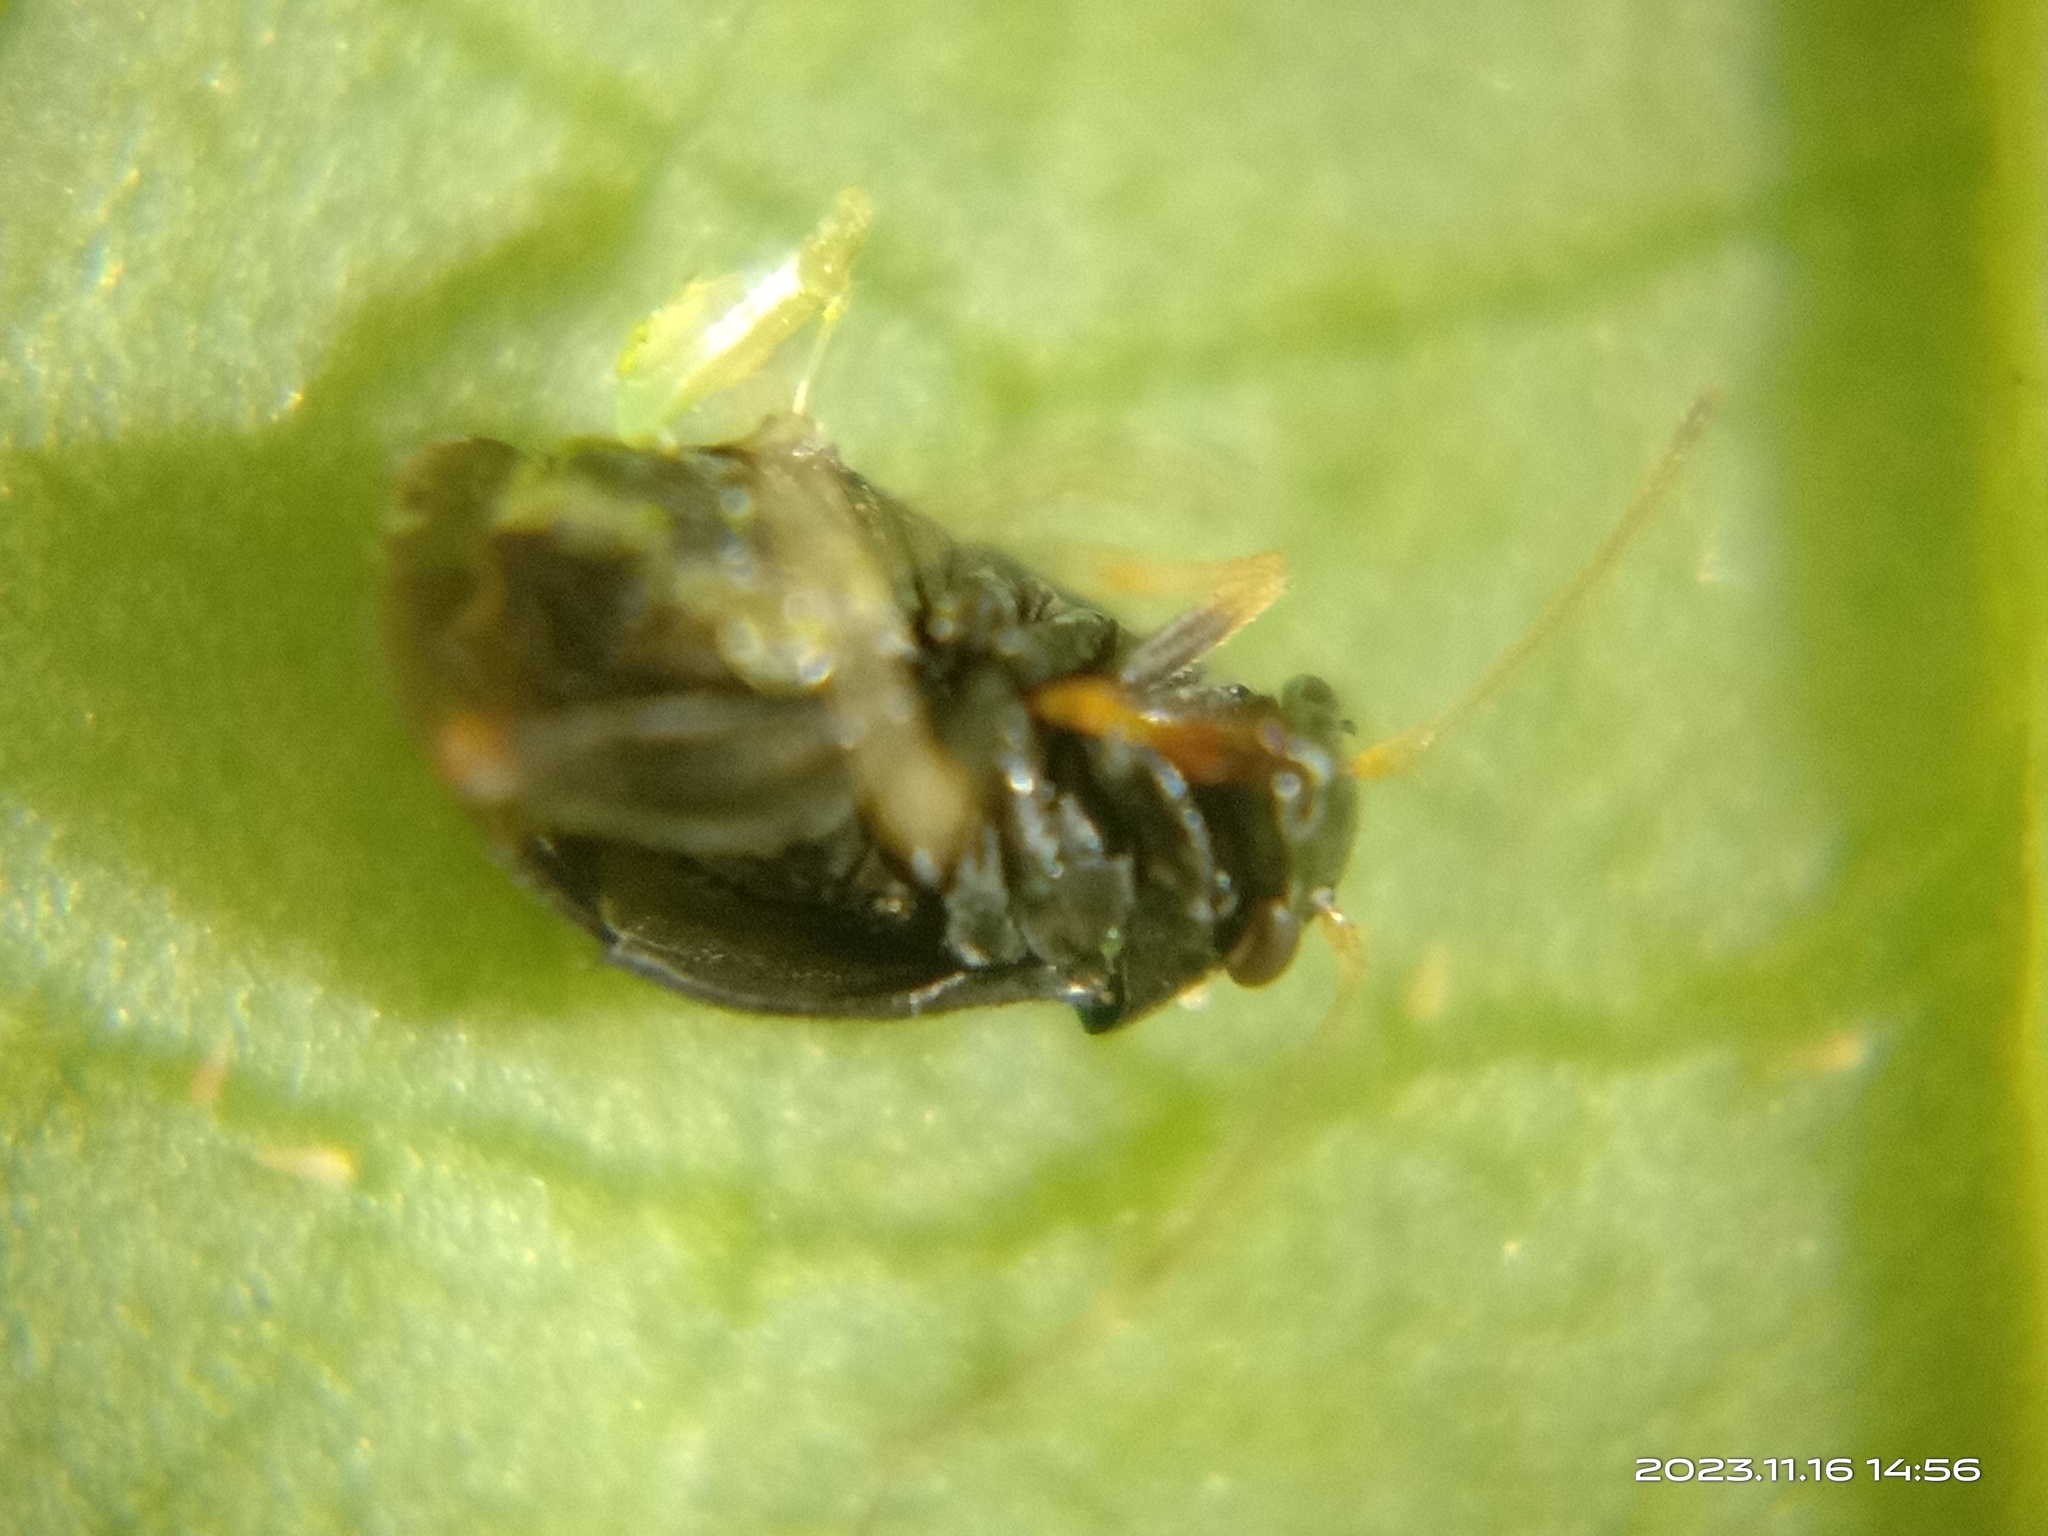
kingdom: Animalia
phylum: Arthropoda
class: Insecta
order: Hemiptera
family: Miridae
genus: Halticus
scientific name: Halticus minutus
